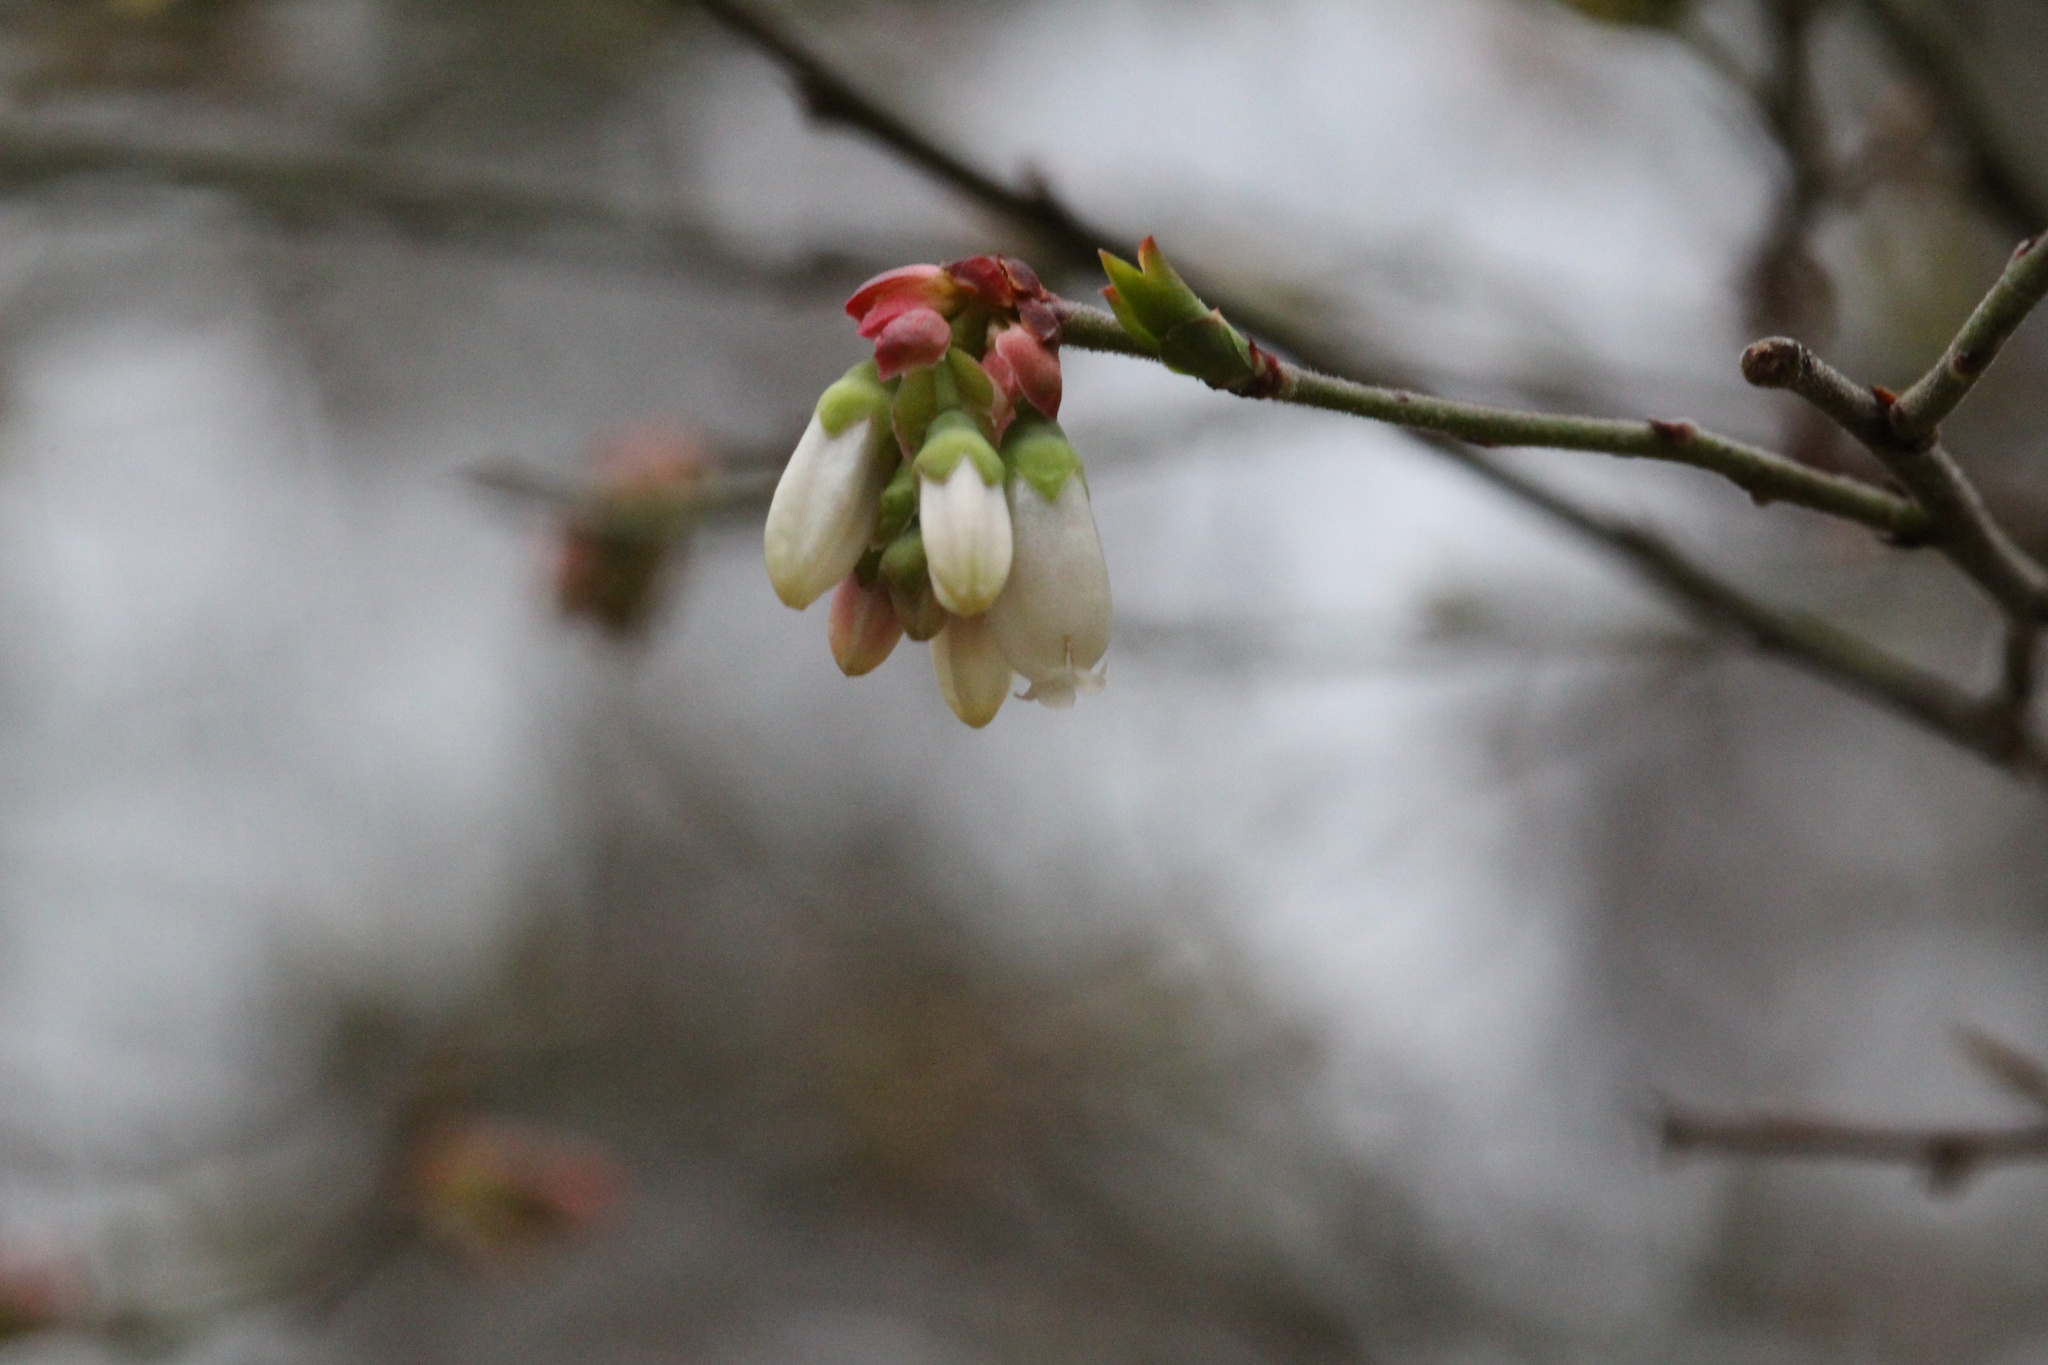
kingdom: Plantae
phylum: Tracheophyta
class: Magnoliopsida
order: Ericales
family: Ericaceae
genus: Vaccinium
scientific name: Vaccinium corymbosum
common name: Blueberry
